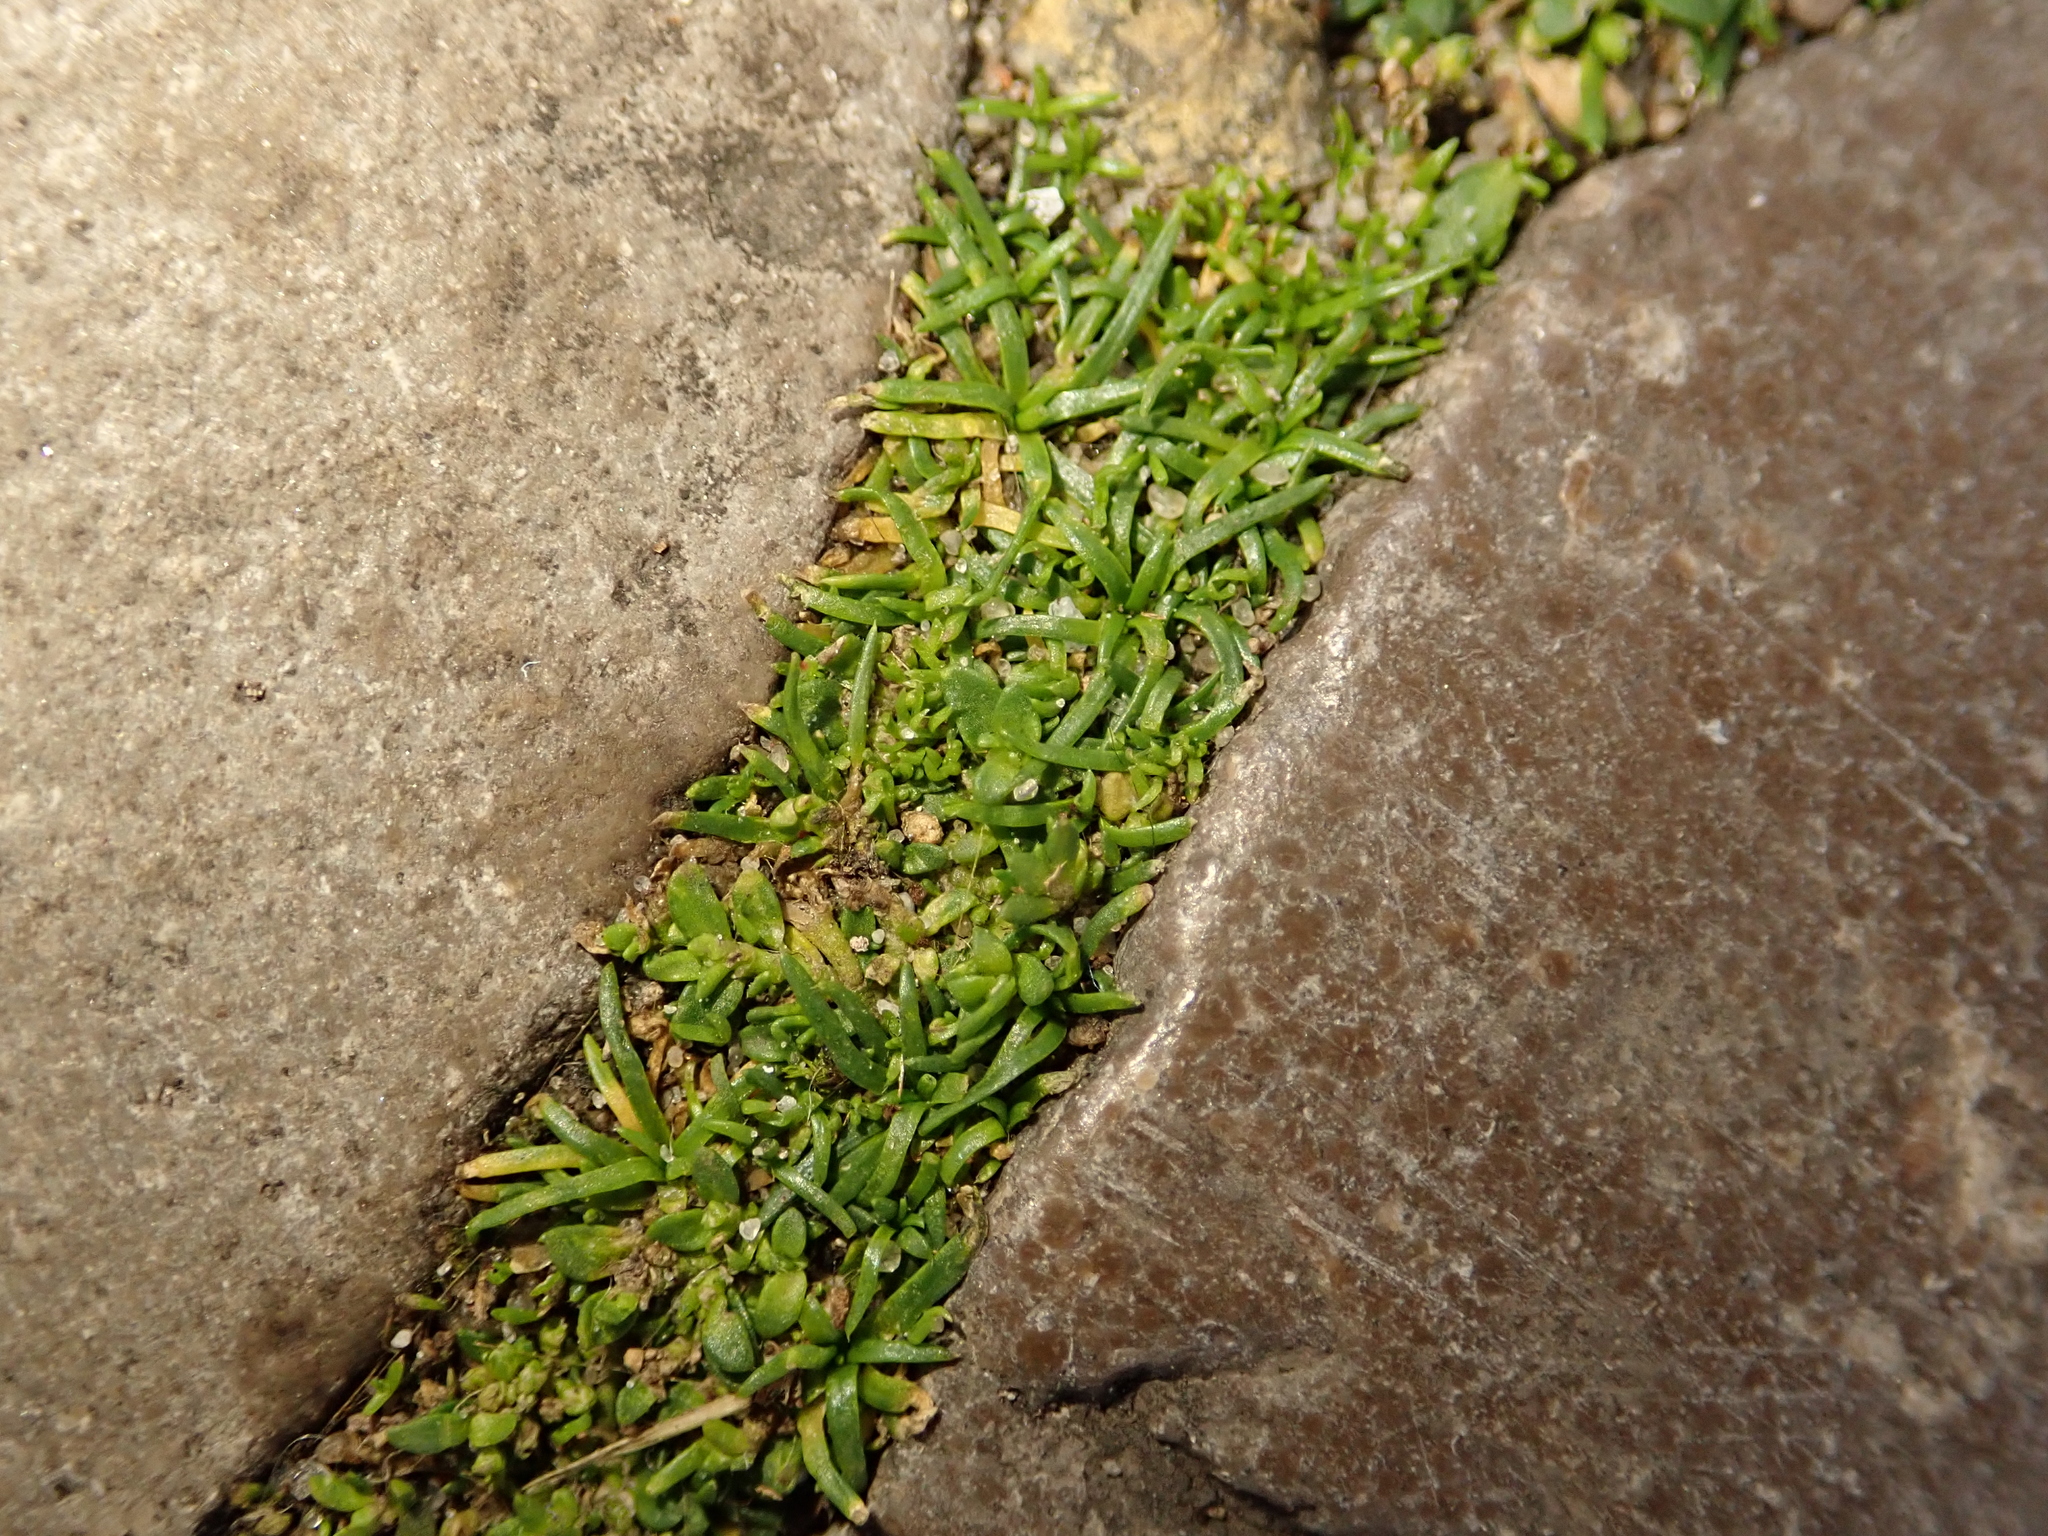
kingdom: Plantae
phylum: Tracheophyta
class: Magnoliopsida
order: Caryophyllales
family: Caryophyllaceae
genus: Sagina
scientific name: Sagina procumbens
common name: Procumbent pearlwort
